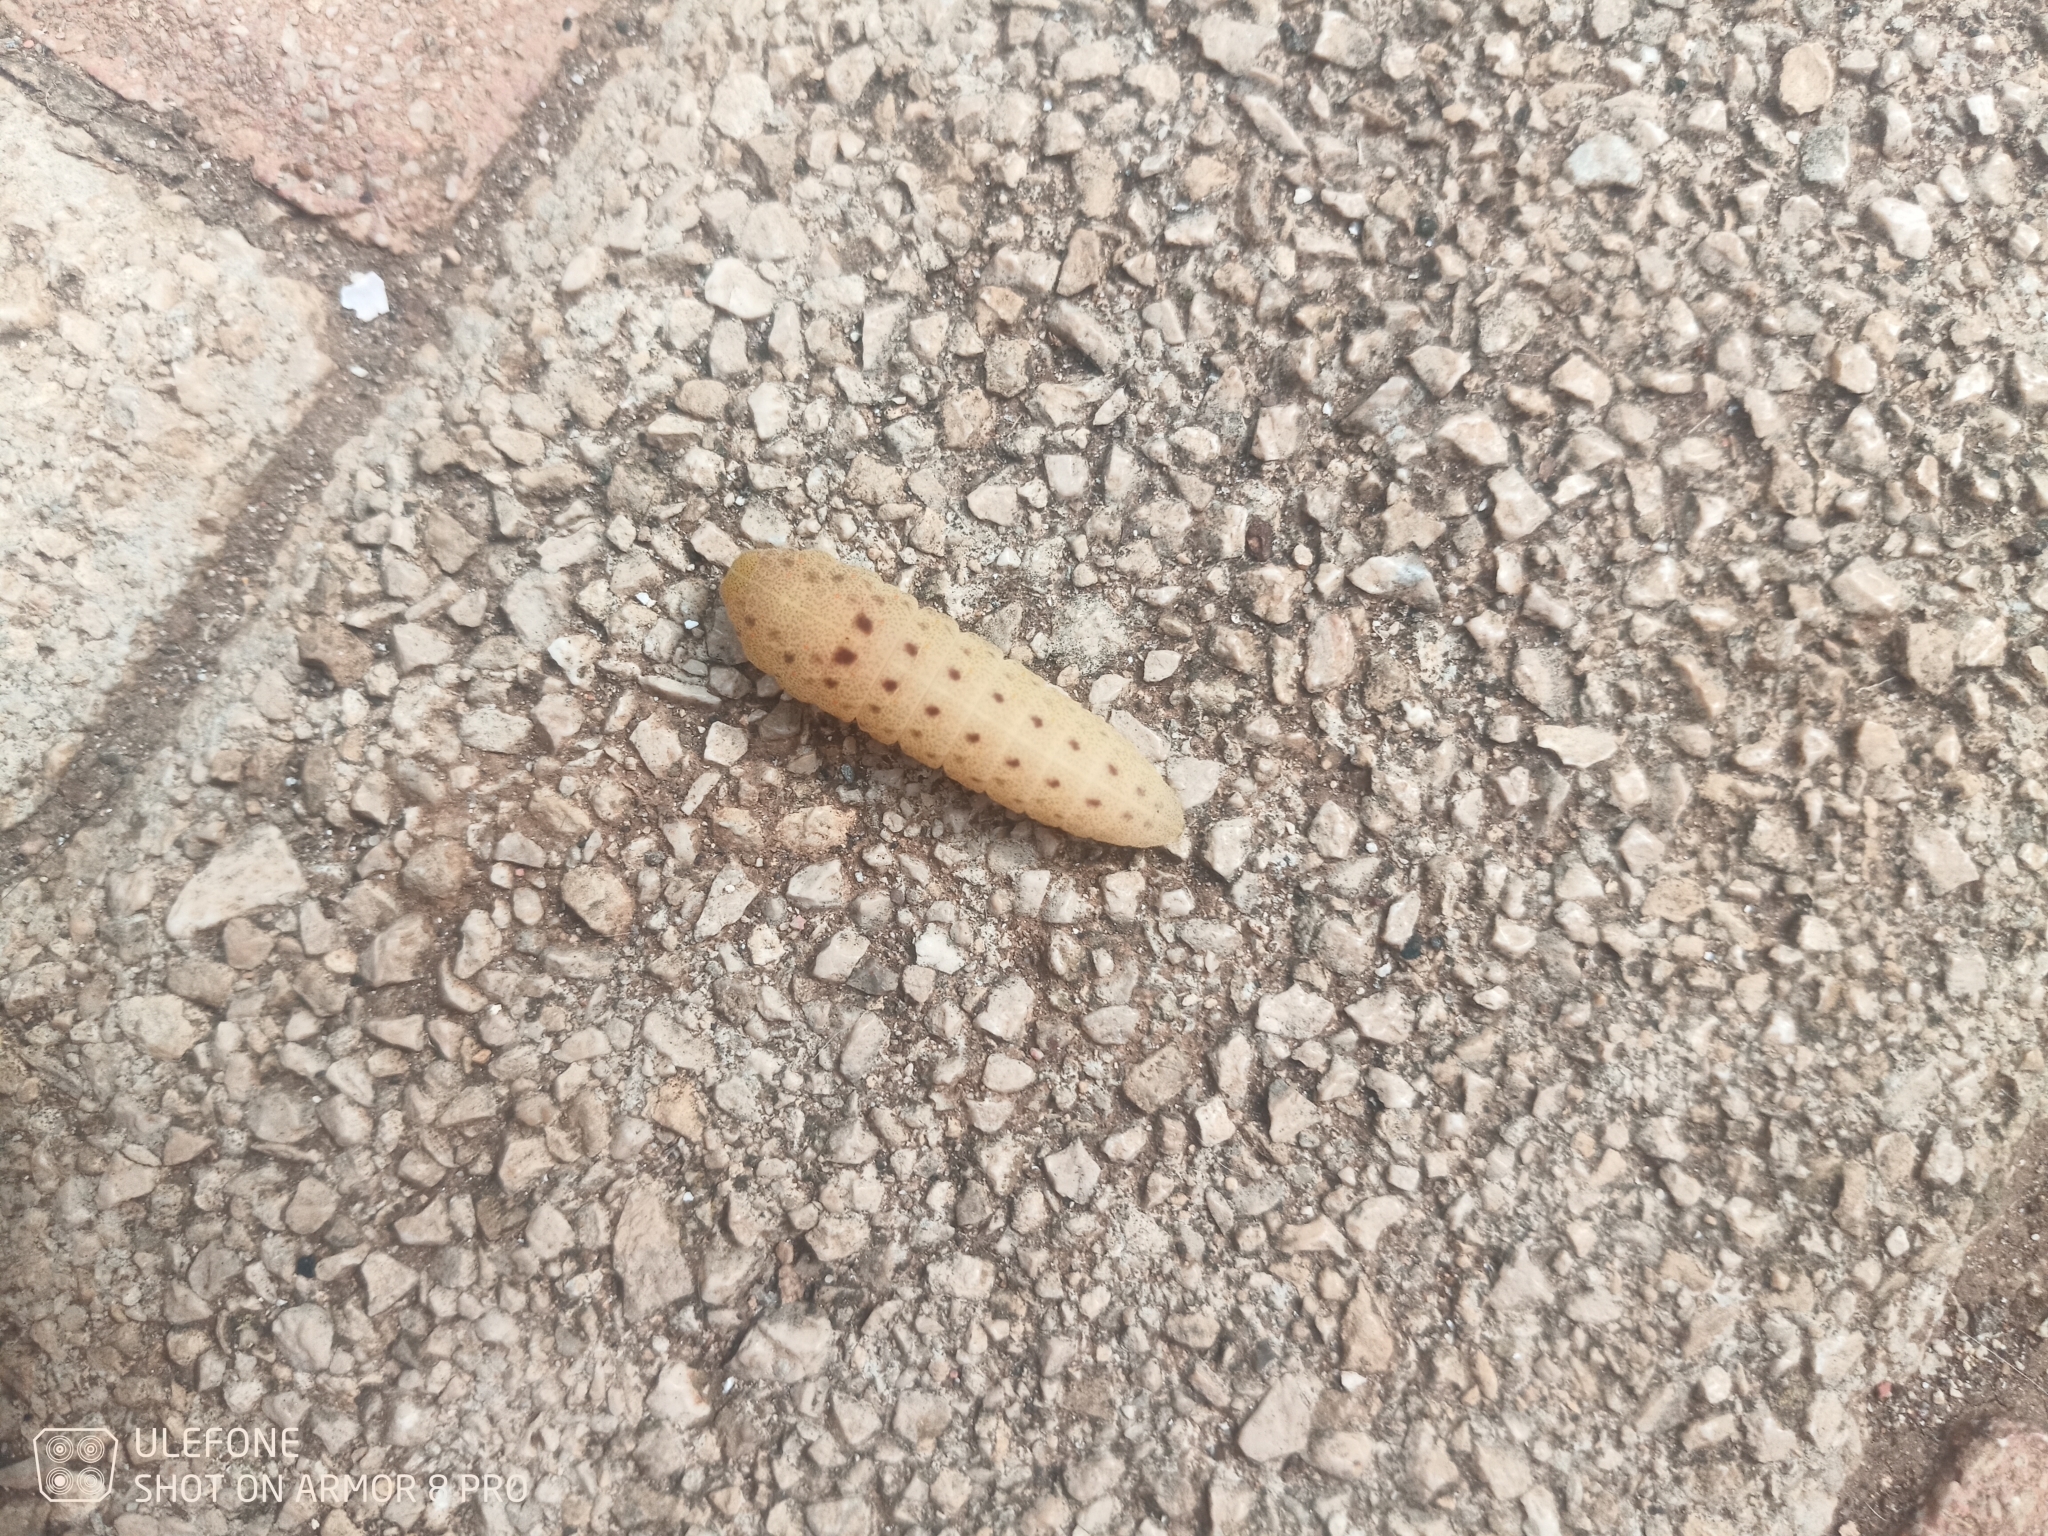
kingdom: Animalia
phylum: Arthropoda
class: Insecta
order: Lepidoptera
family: Papilionidae
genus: Iphiclides
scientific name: Iphiclides podalirius
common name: Scarce swallowtail
